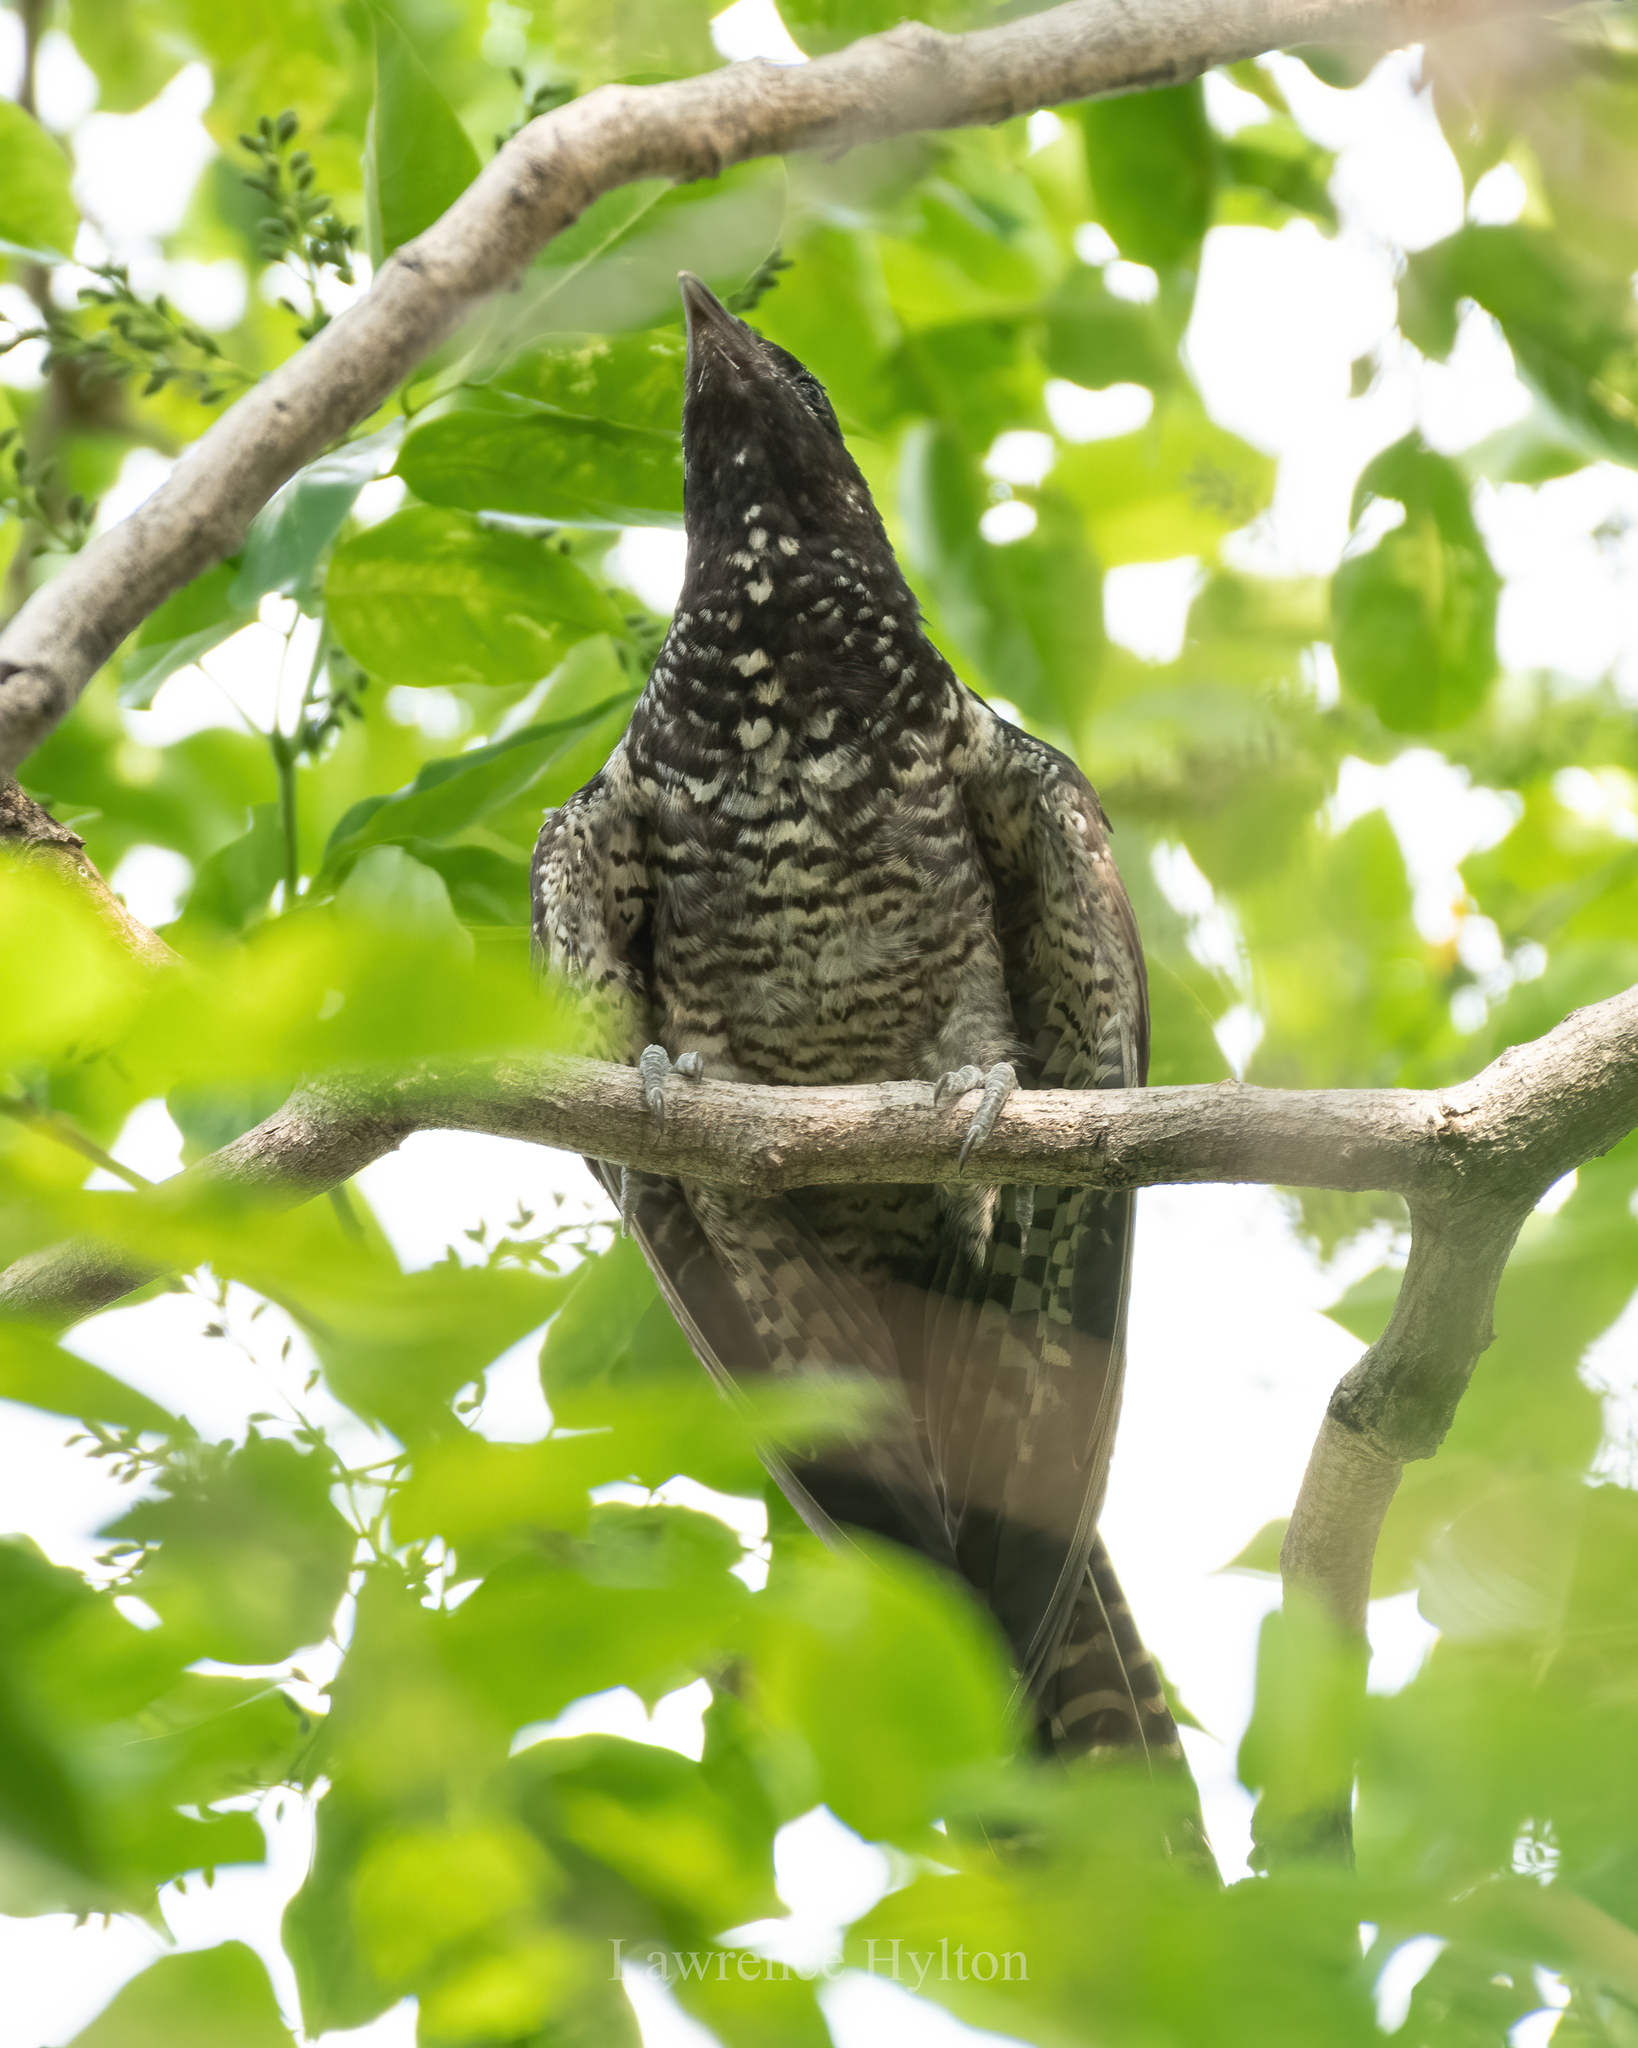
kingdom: Animalia
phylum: Chordata
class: Aves
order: Cuculiformes
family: Cuculidae
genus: Eudynamys
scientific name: Eudynamys scolopaceus
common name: Asian koel
